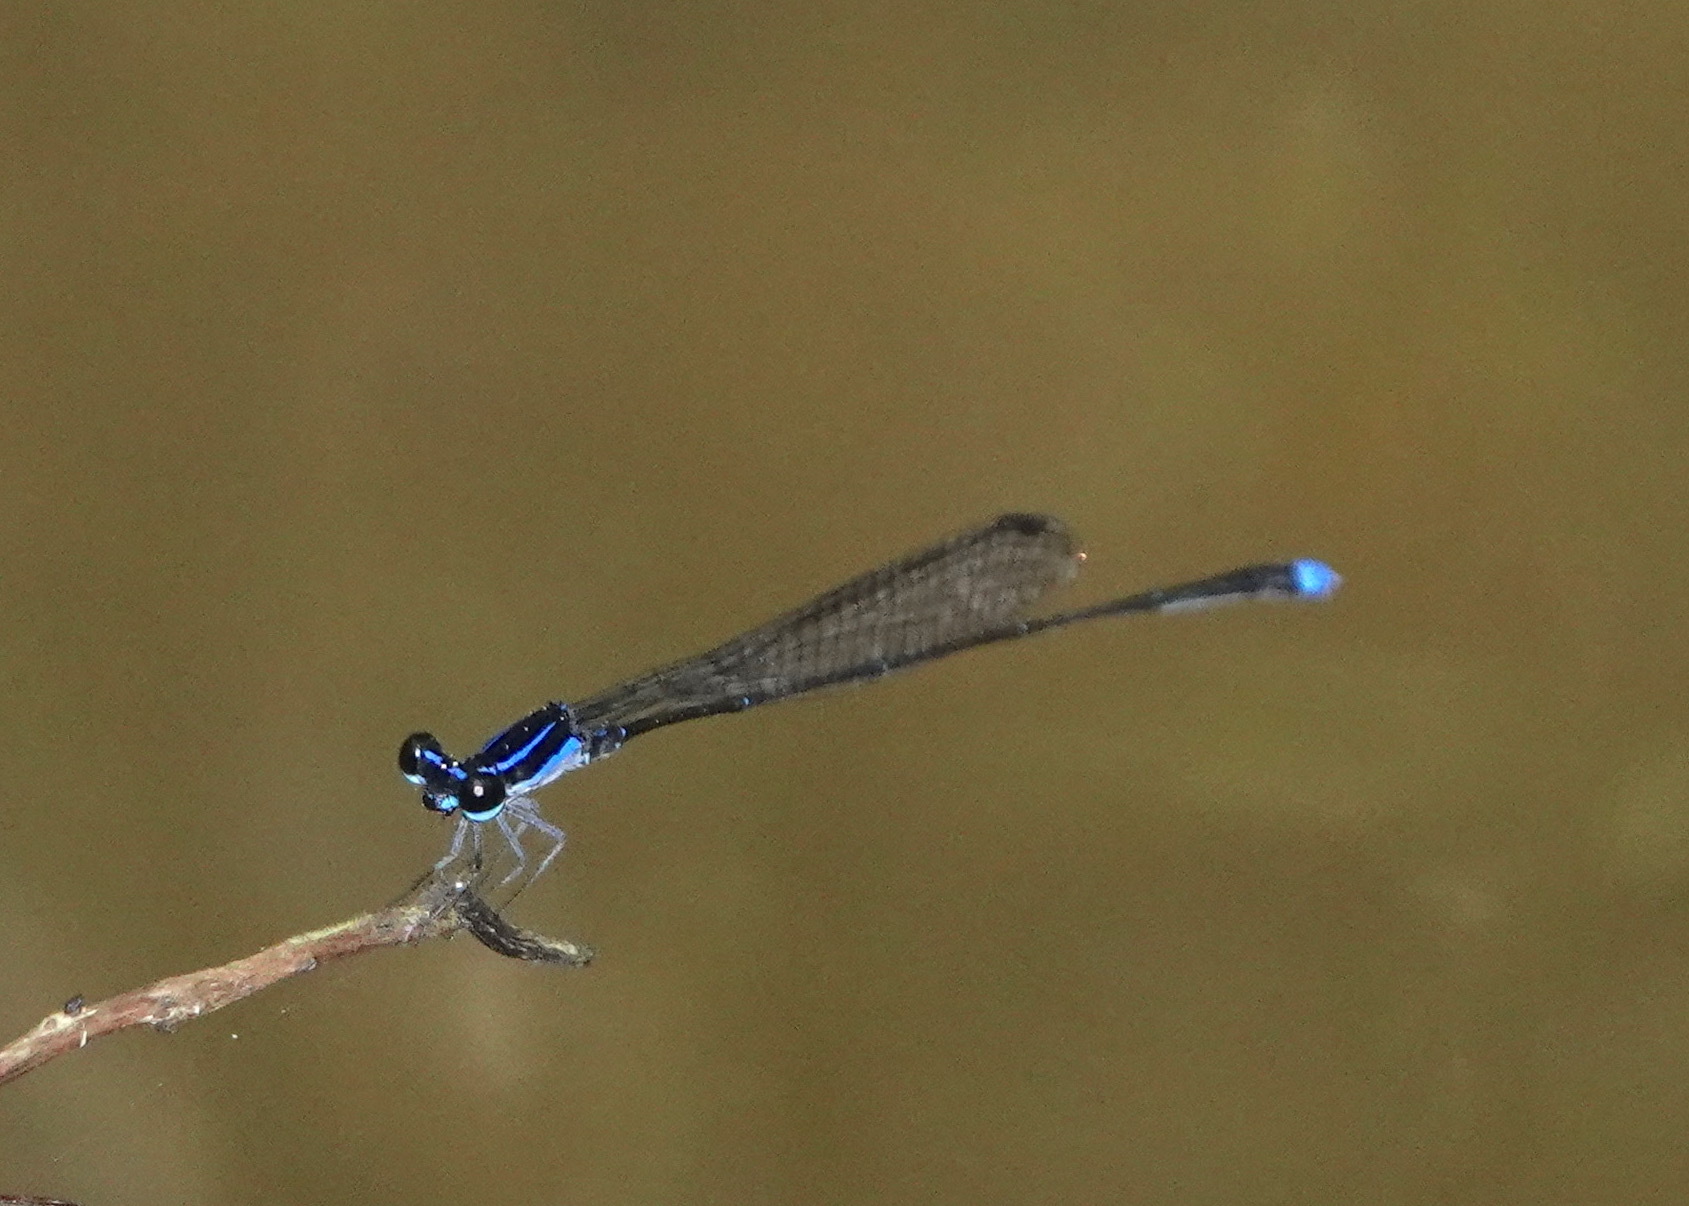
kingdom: Animalia
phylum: Arthropoda
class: Insecta
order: Odonata
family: Platycnemididae
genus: Prodasineura
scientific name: Prodasineura laidlawii
